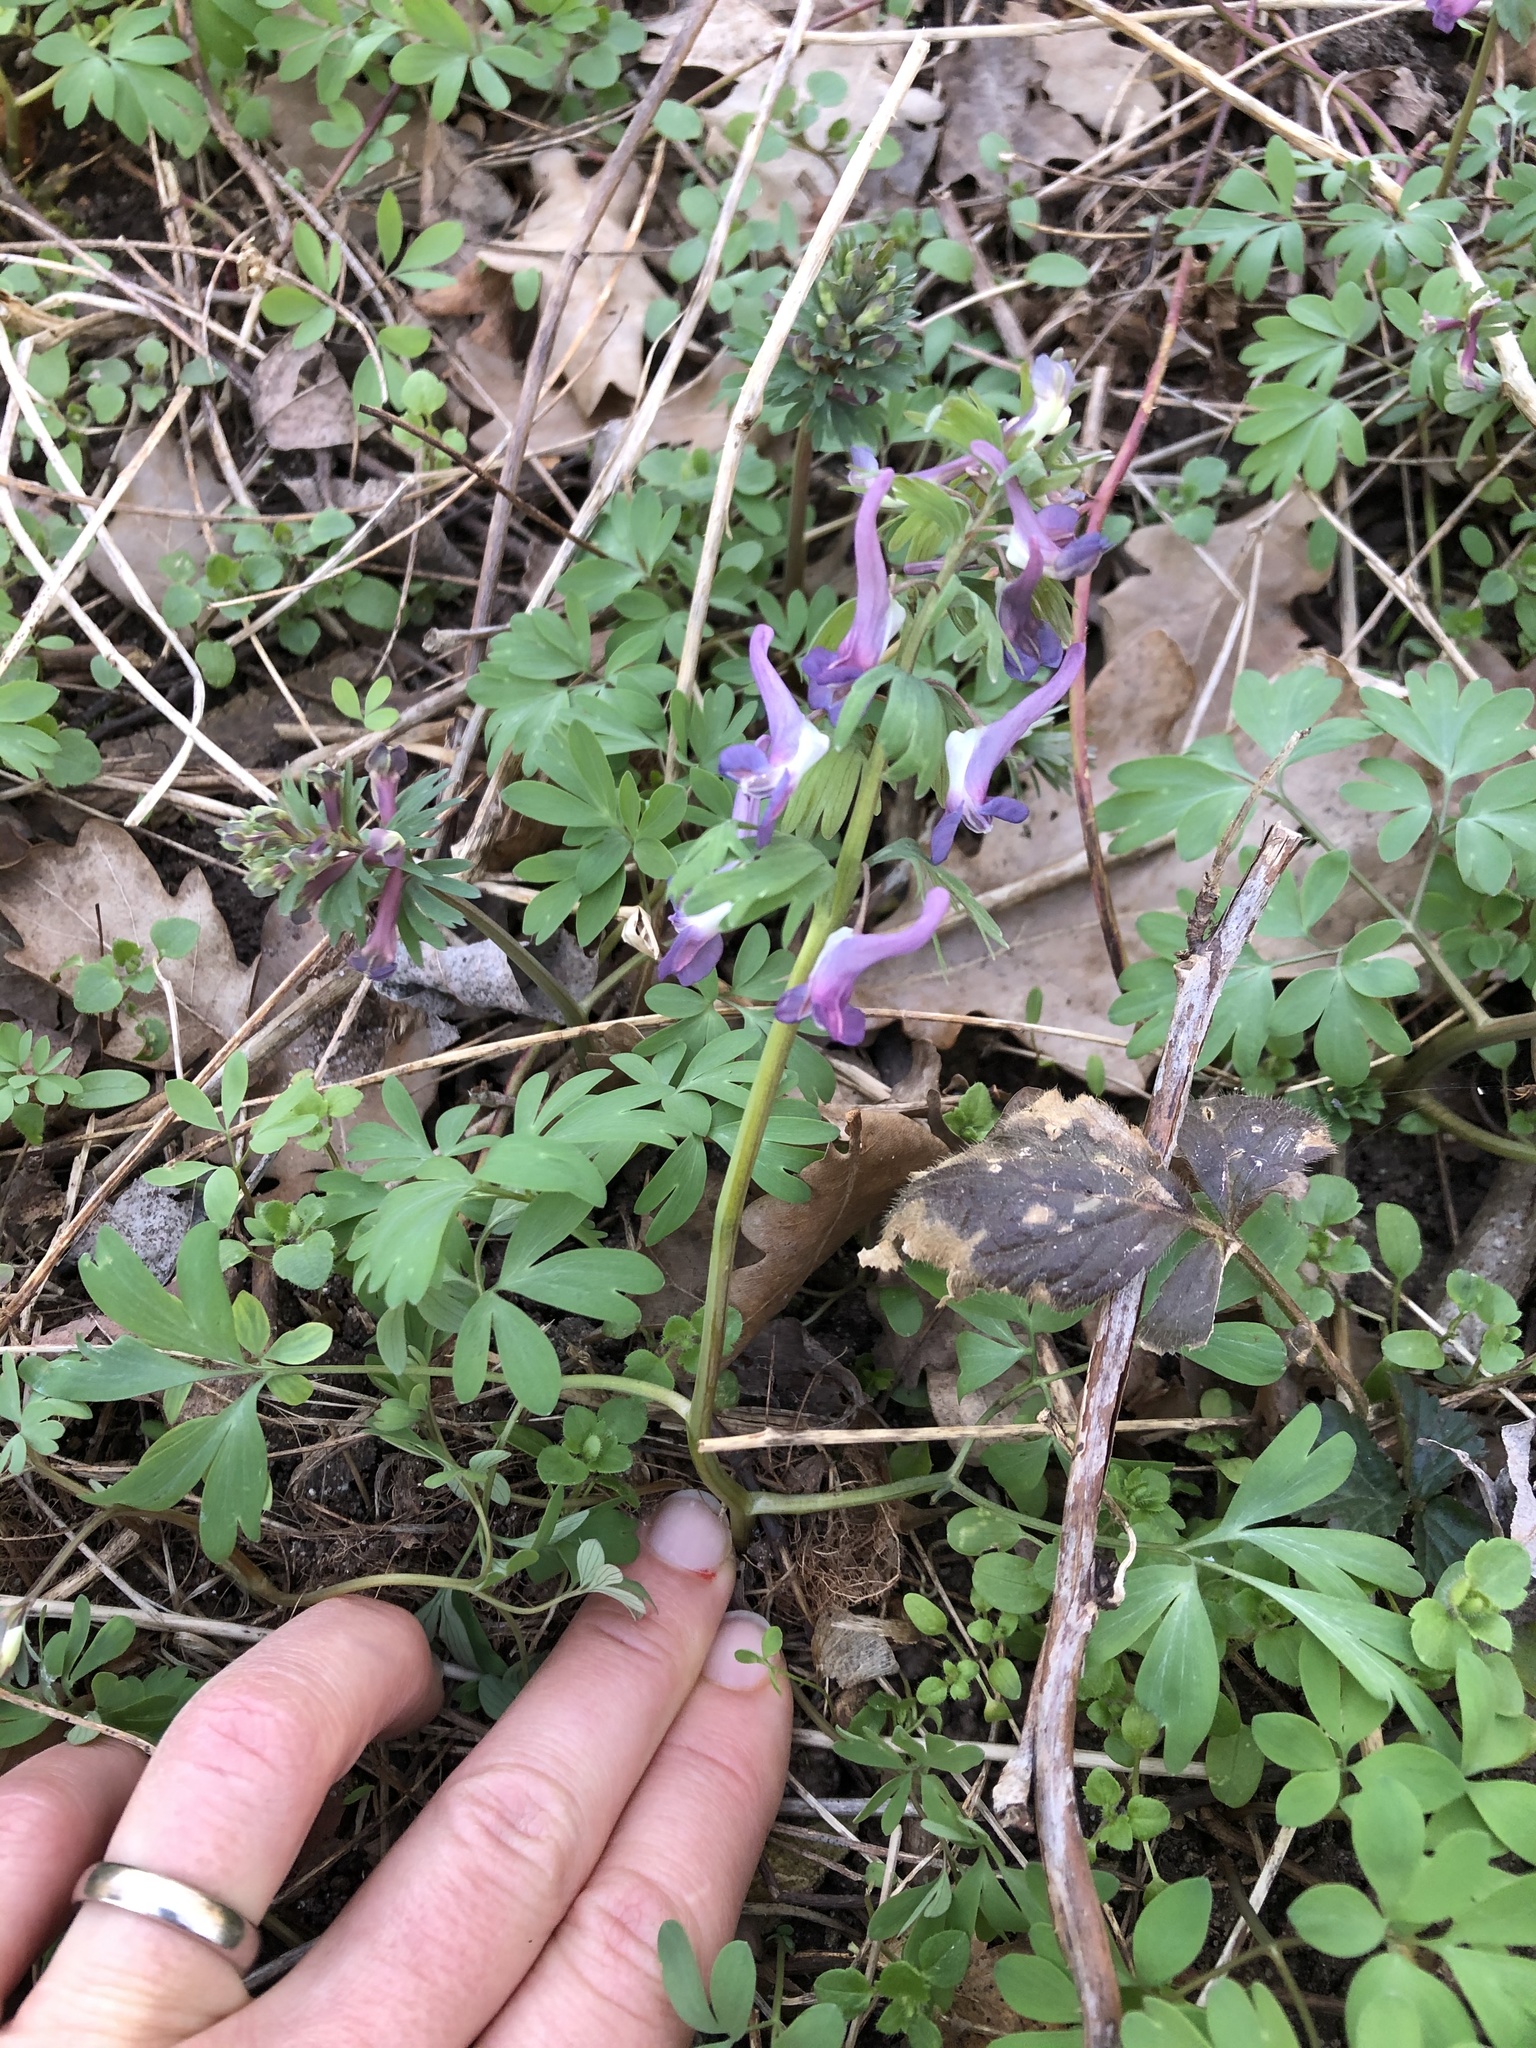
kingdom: Plantae
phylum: Tracheophyta
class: Magnoliopsida
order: Ranunculales
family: Papaveraceae
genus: Corydalis
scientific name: Corydalis solida
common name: Bird-in-a-bush
